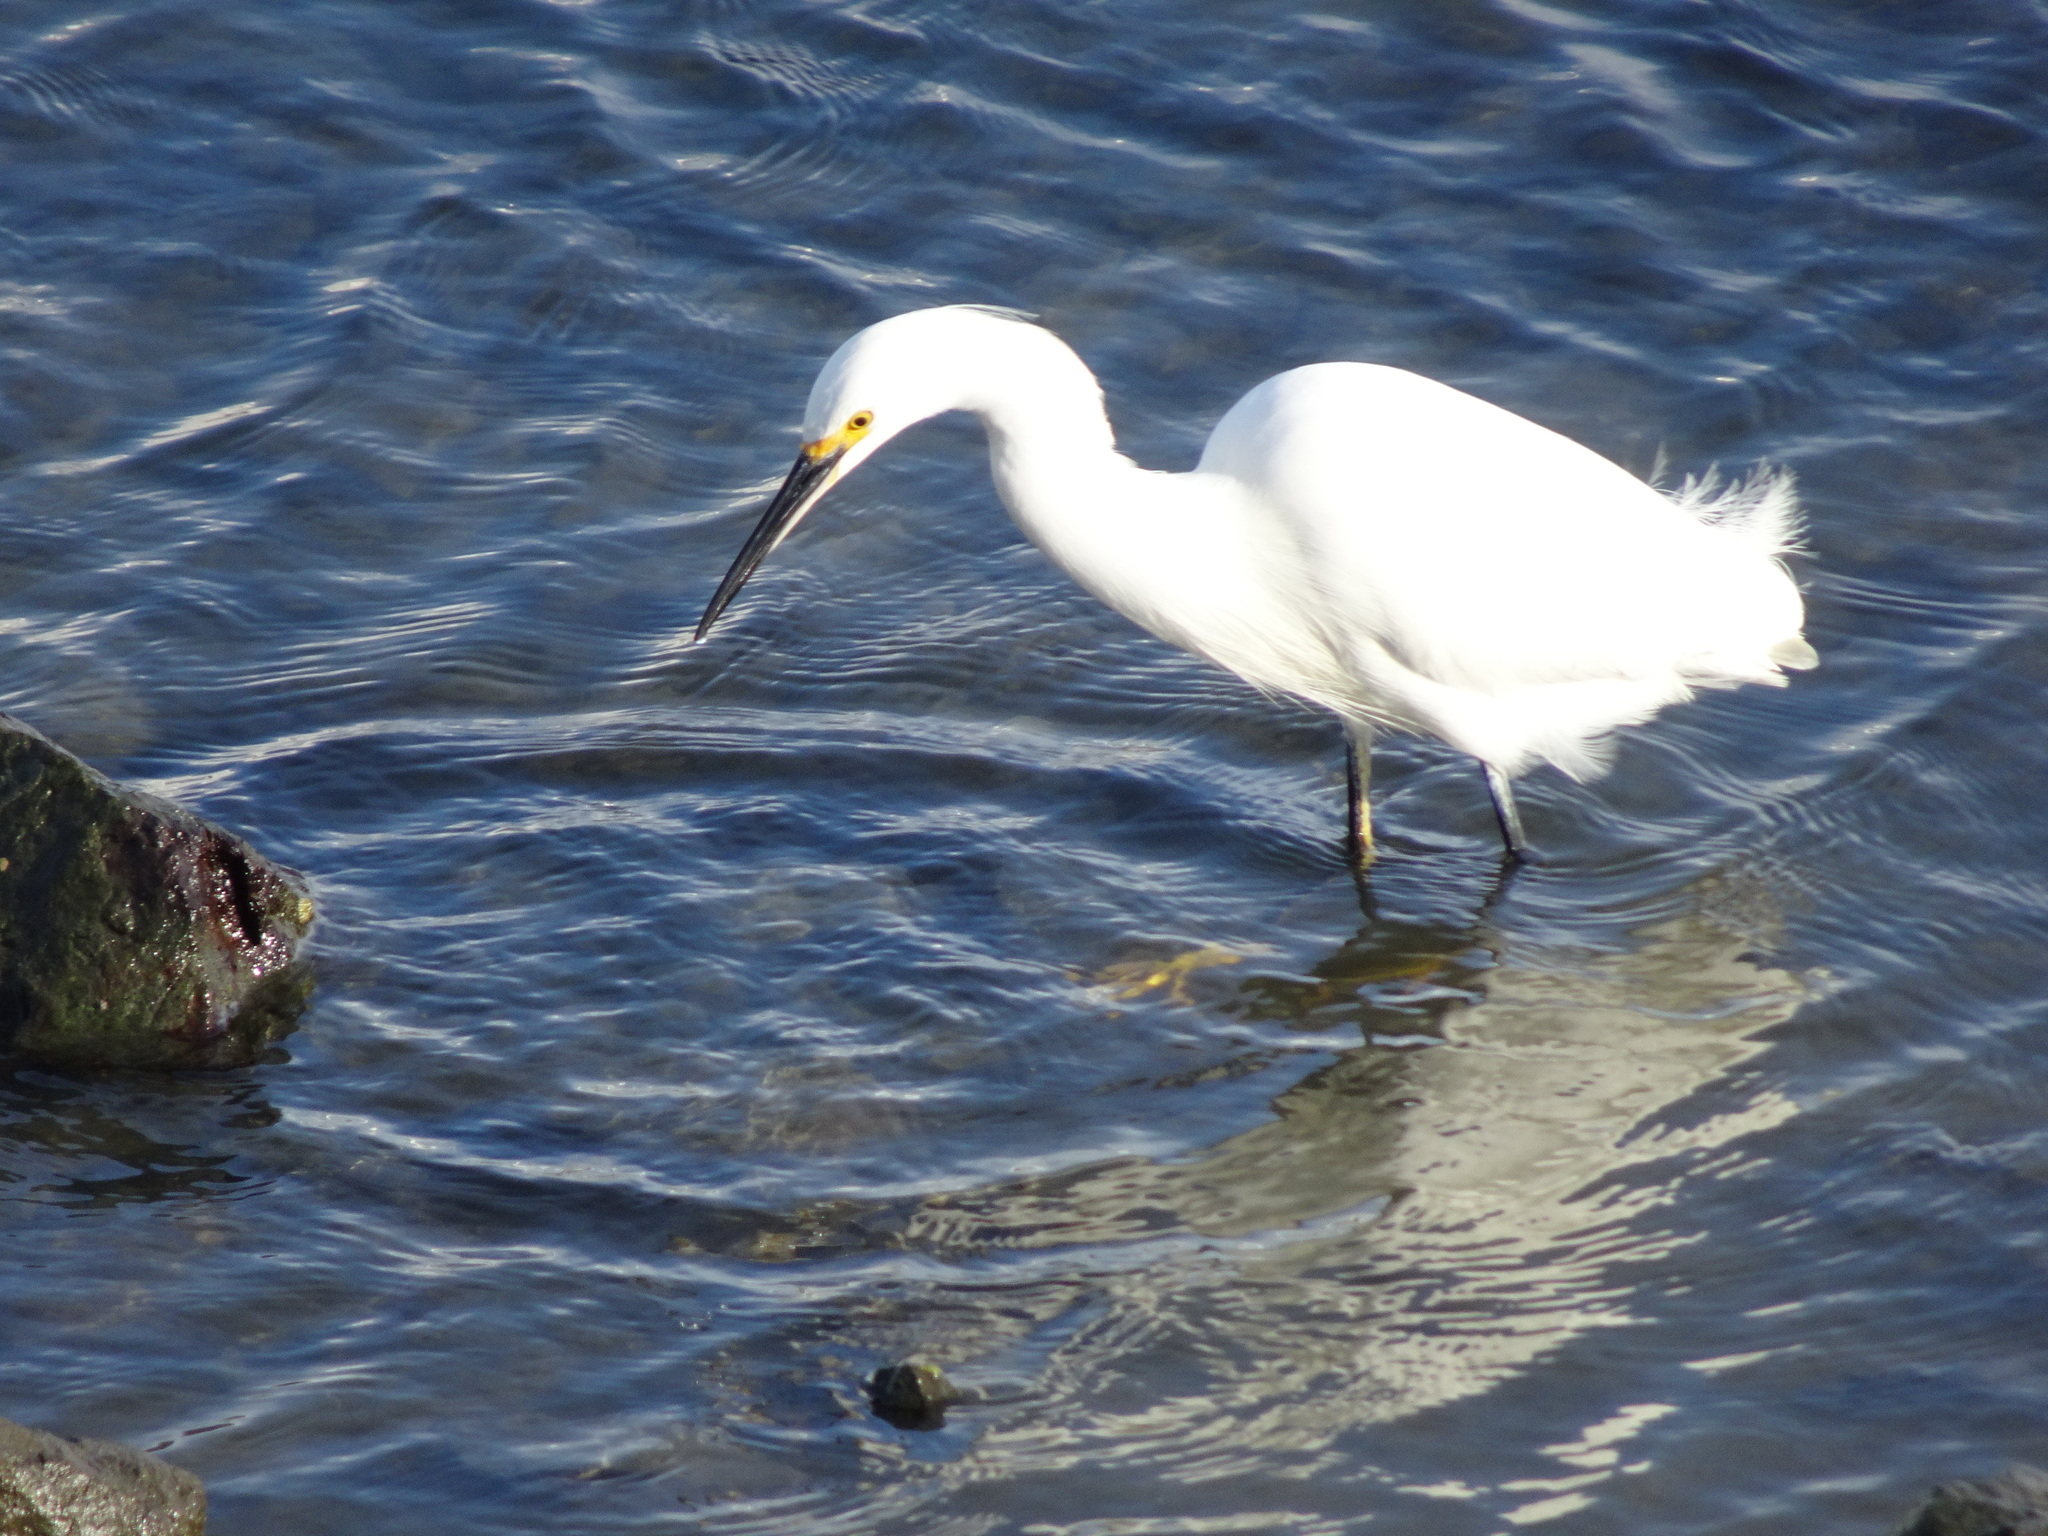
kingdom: Animalia
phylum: Chordata
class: Aves
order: Pelecaniformes
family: Ardeidae
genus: Egretta
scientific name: Egretta thula
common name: Snowy egret
